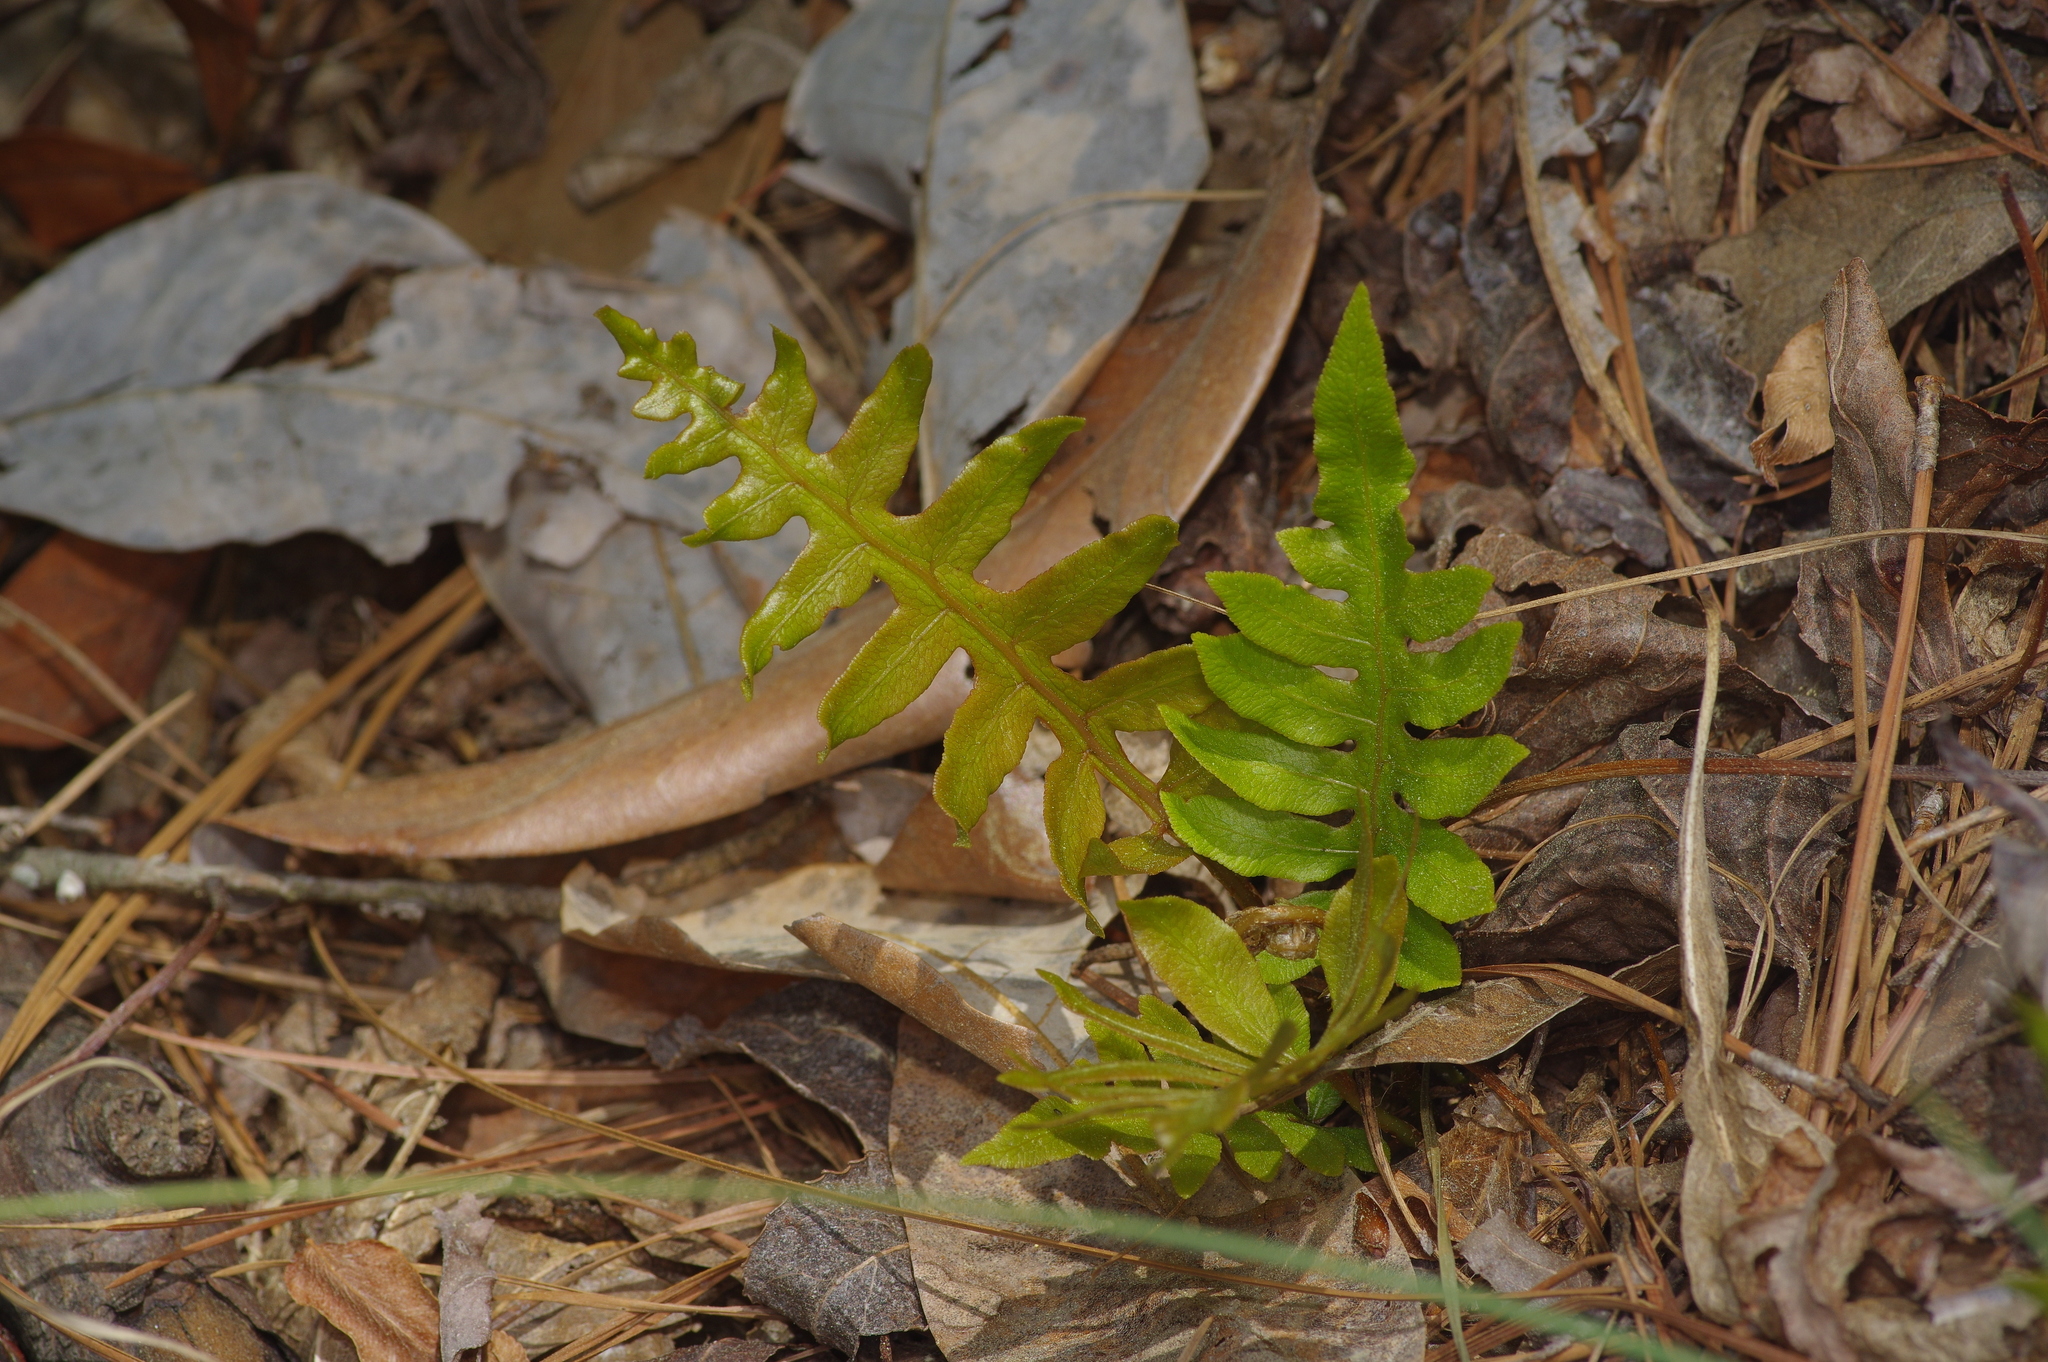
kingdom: Plantae
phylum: Tracheophyta
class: Polypodiopsida
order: Polypodiales
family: Blechnaceae
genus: Lorinseria
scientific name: Lorinseria areolata
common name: Dwarf chain fern
